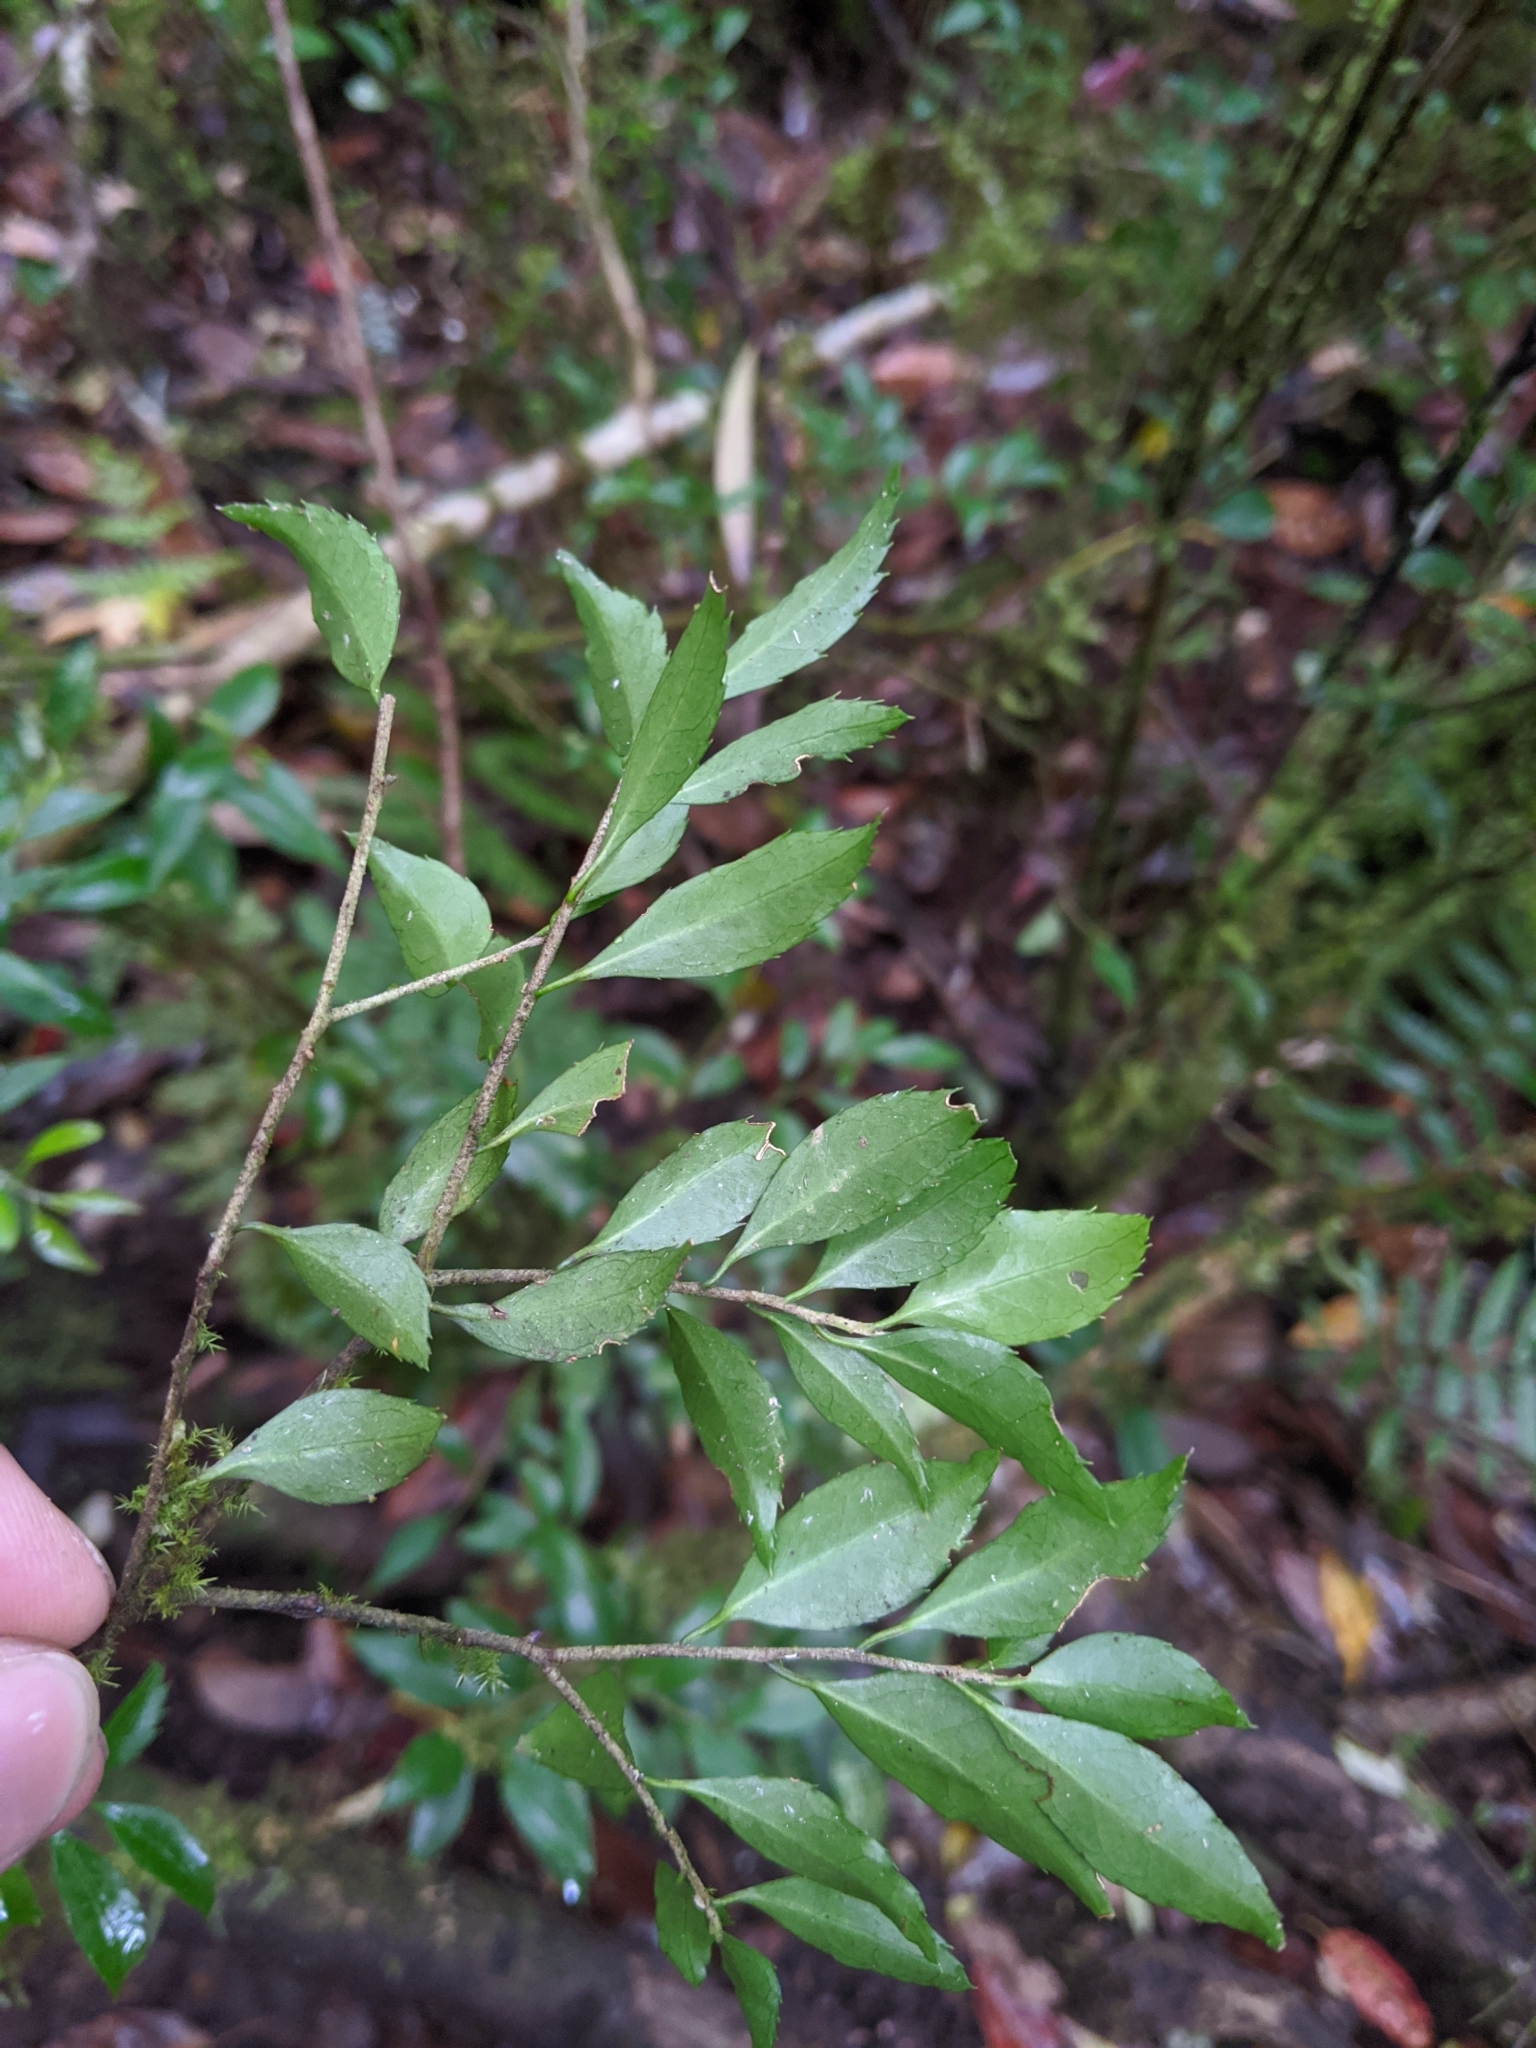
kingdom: Plantae
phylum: Tracheophyta
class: Magnoliopsida
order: Ericales
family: Symplocaceae
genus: Symplocos
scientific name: Symplocos anomala
